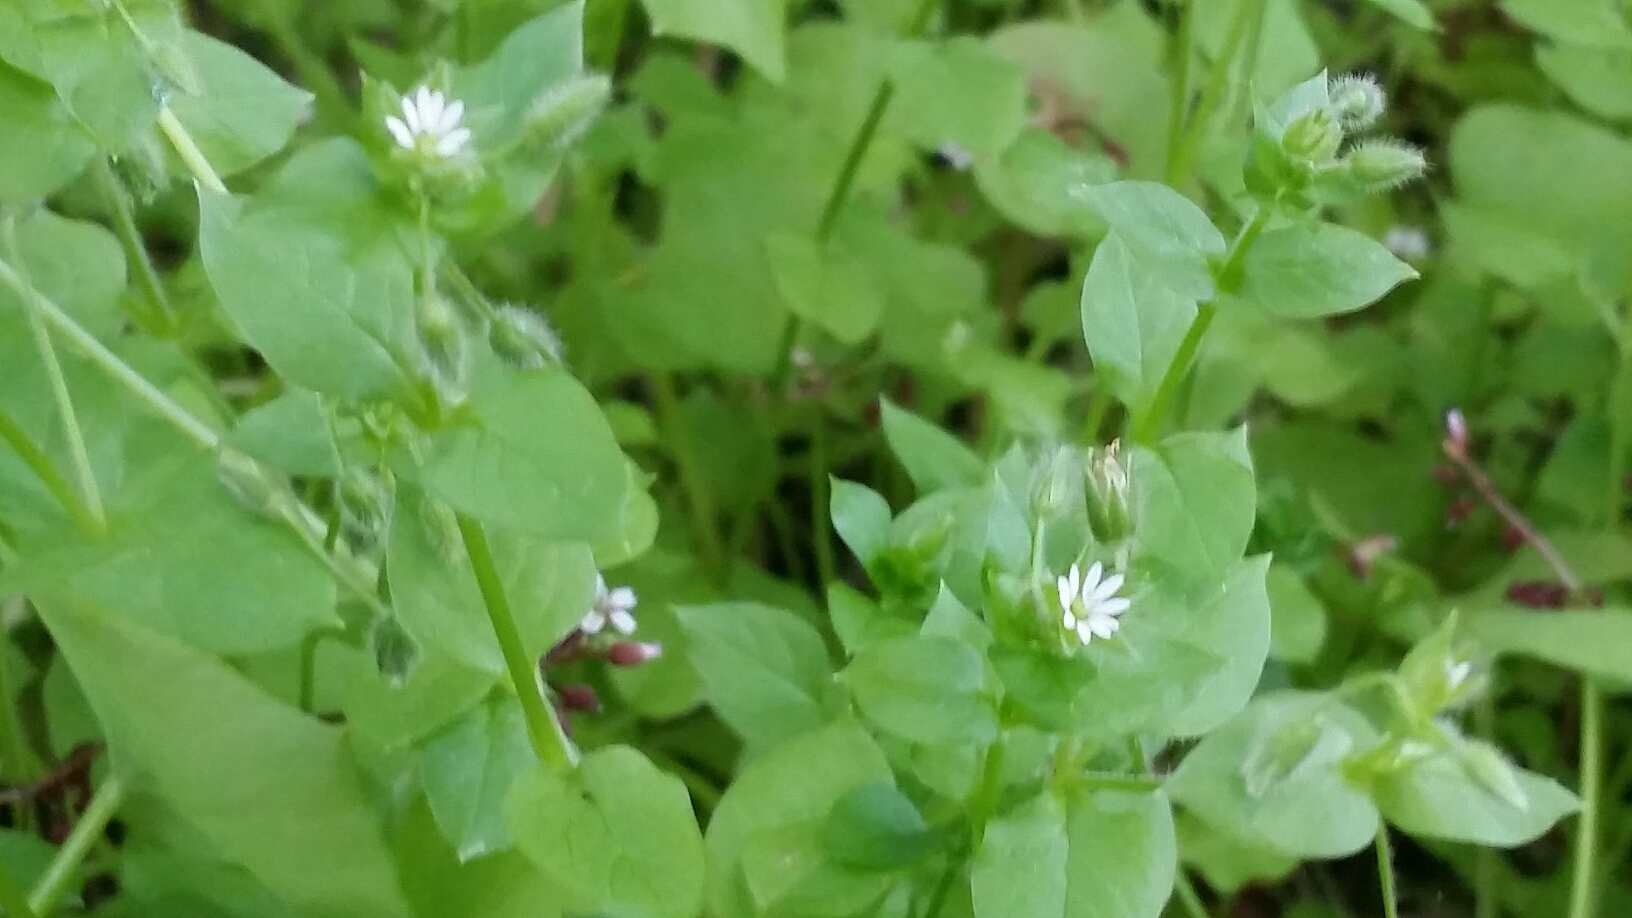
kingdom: Plantae
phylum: Tracheophyta
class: Magnoliopsida
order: Caryophyllales
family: Caryophyllaceae
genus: Stellaria
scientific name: Stellaria media
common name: Common chickweed
